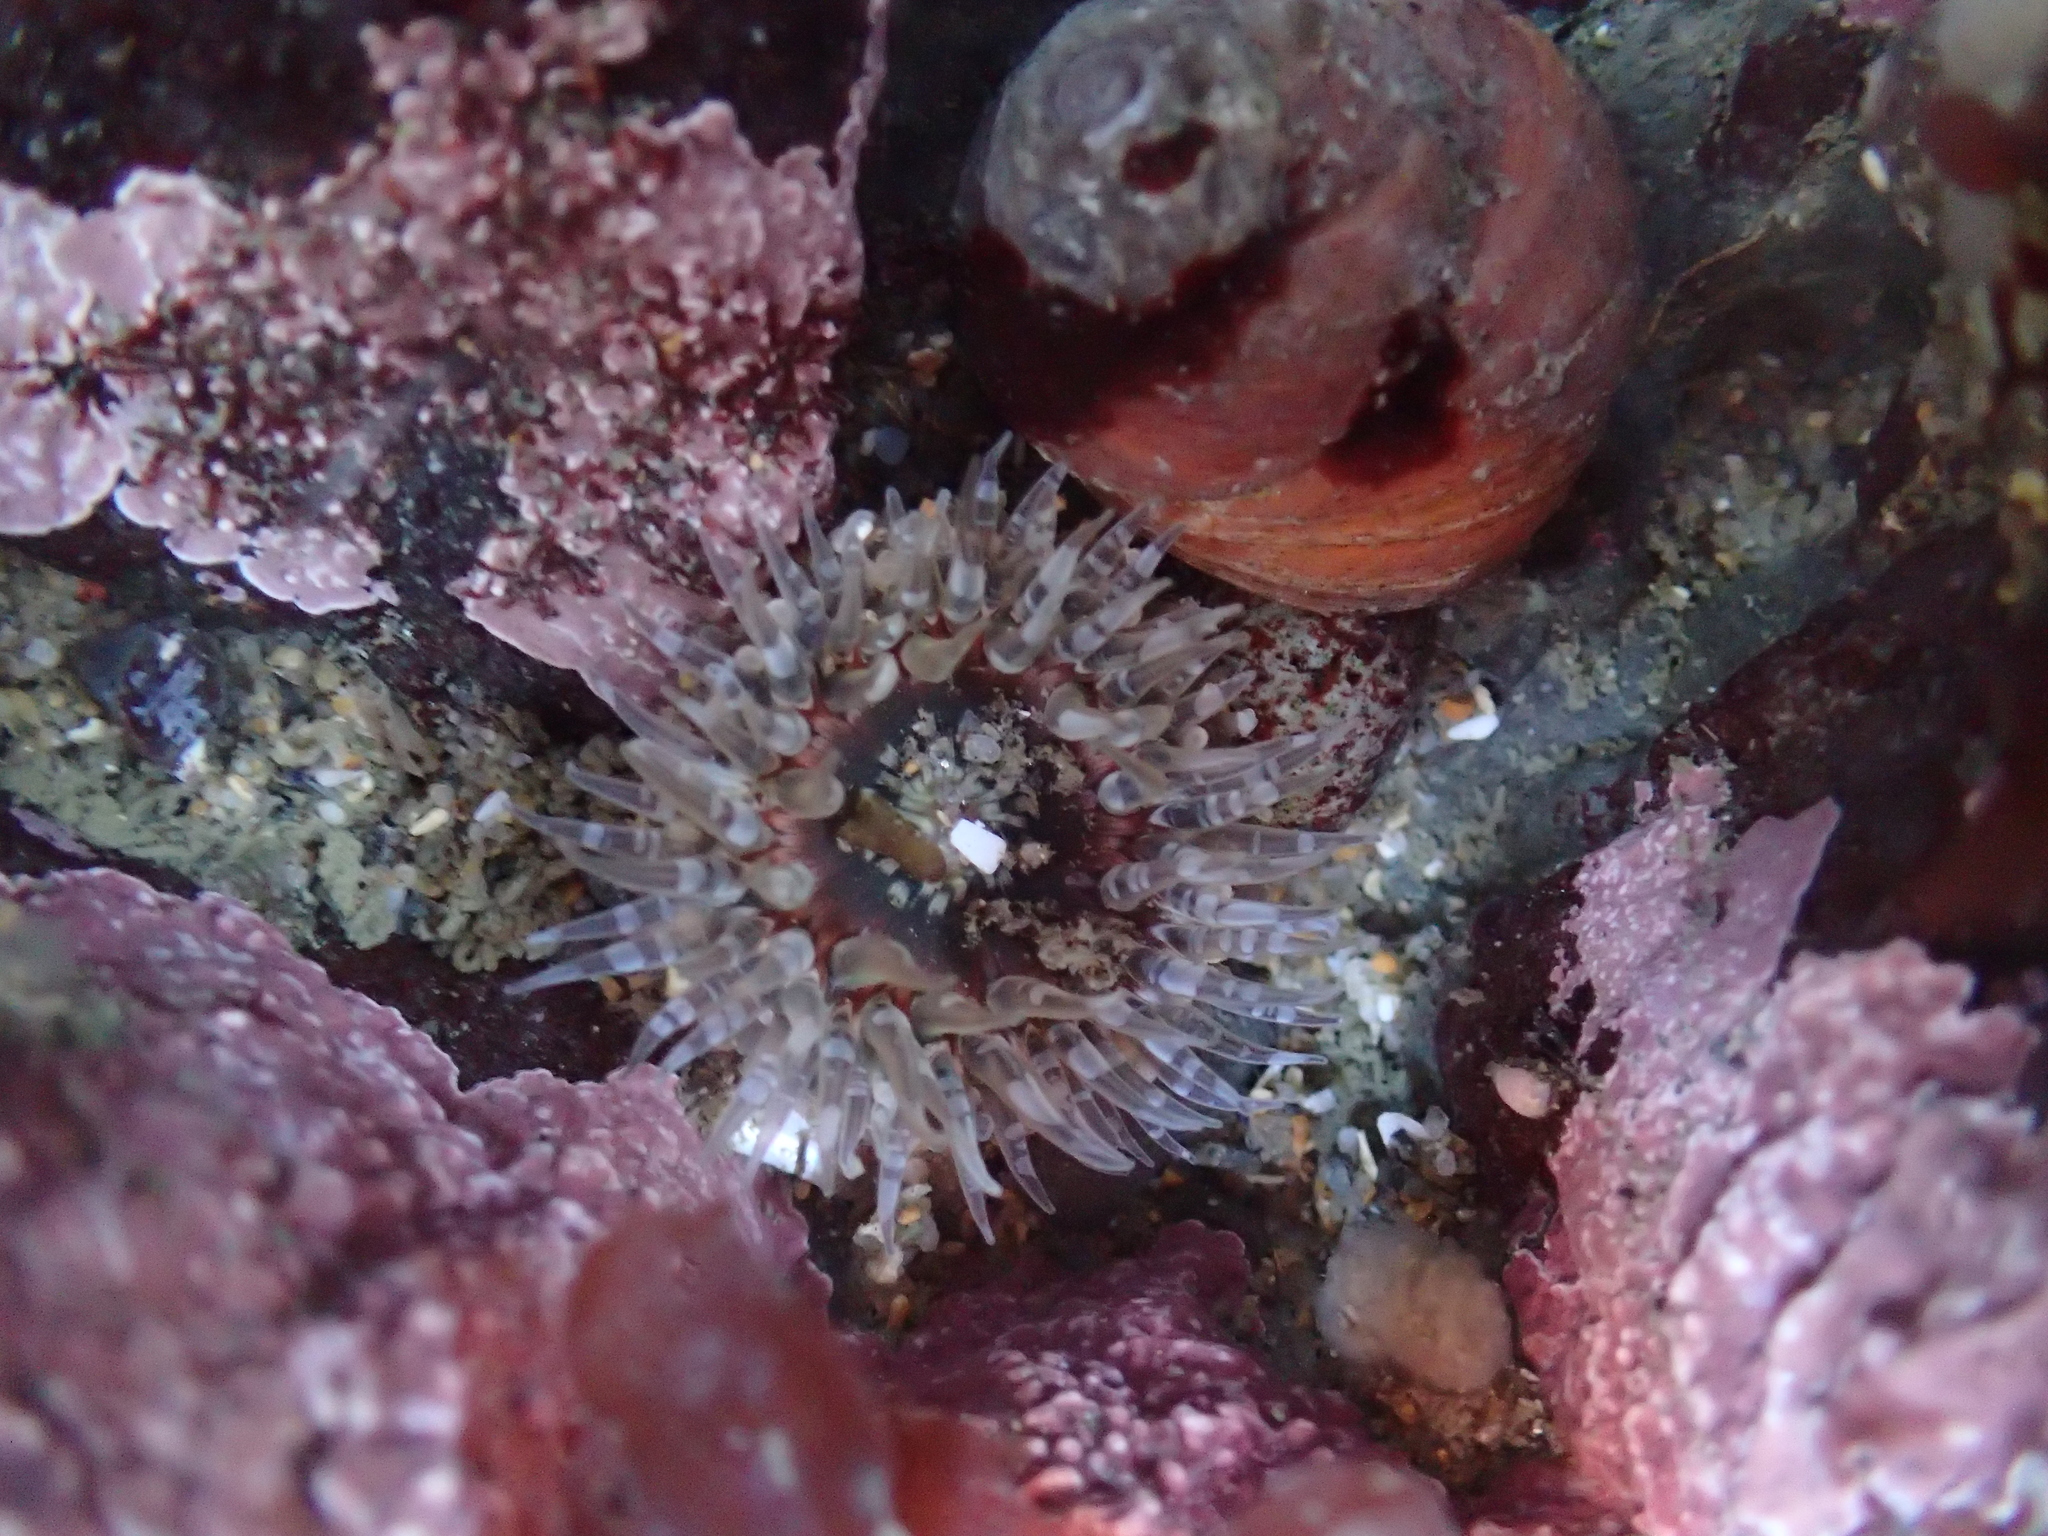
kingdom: Animalia
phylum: Cnidaria
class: Anthozoa
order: Actiniaria
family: Actiniidae
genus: Anthopleura
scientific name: Anthopleura artemisia
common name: Buried sea anemone
